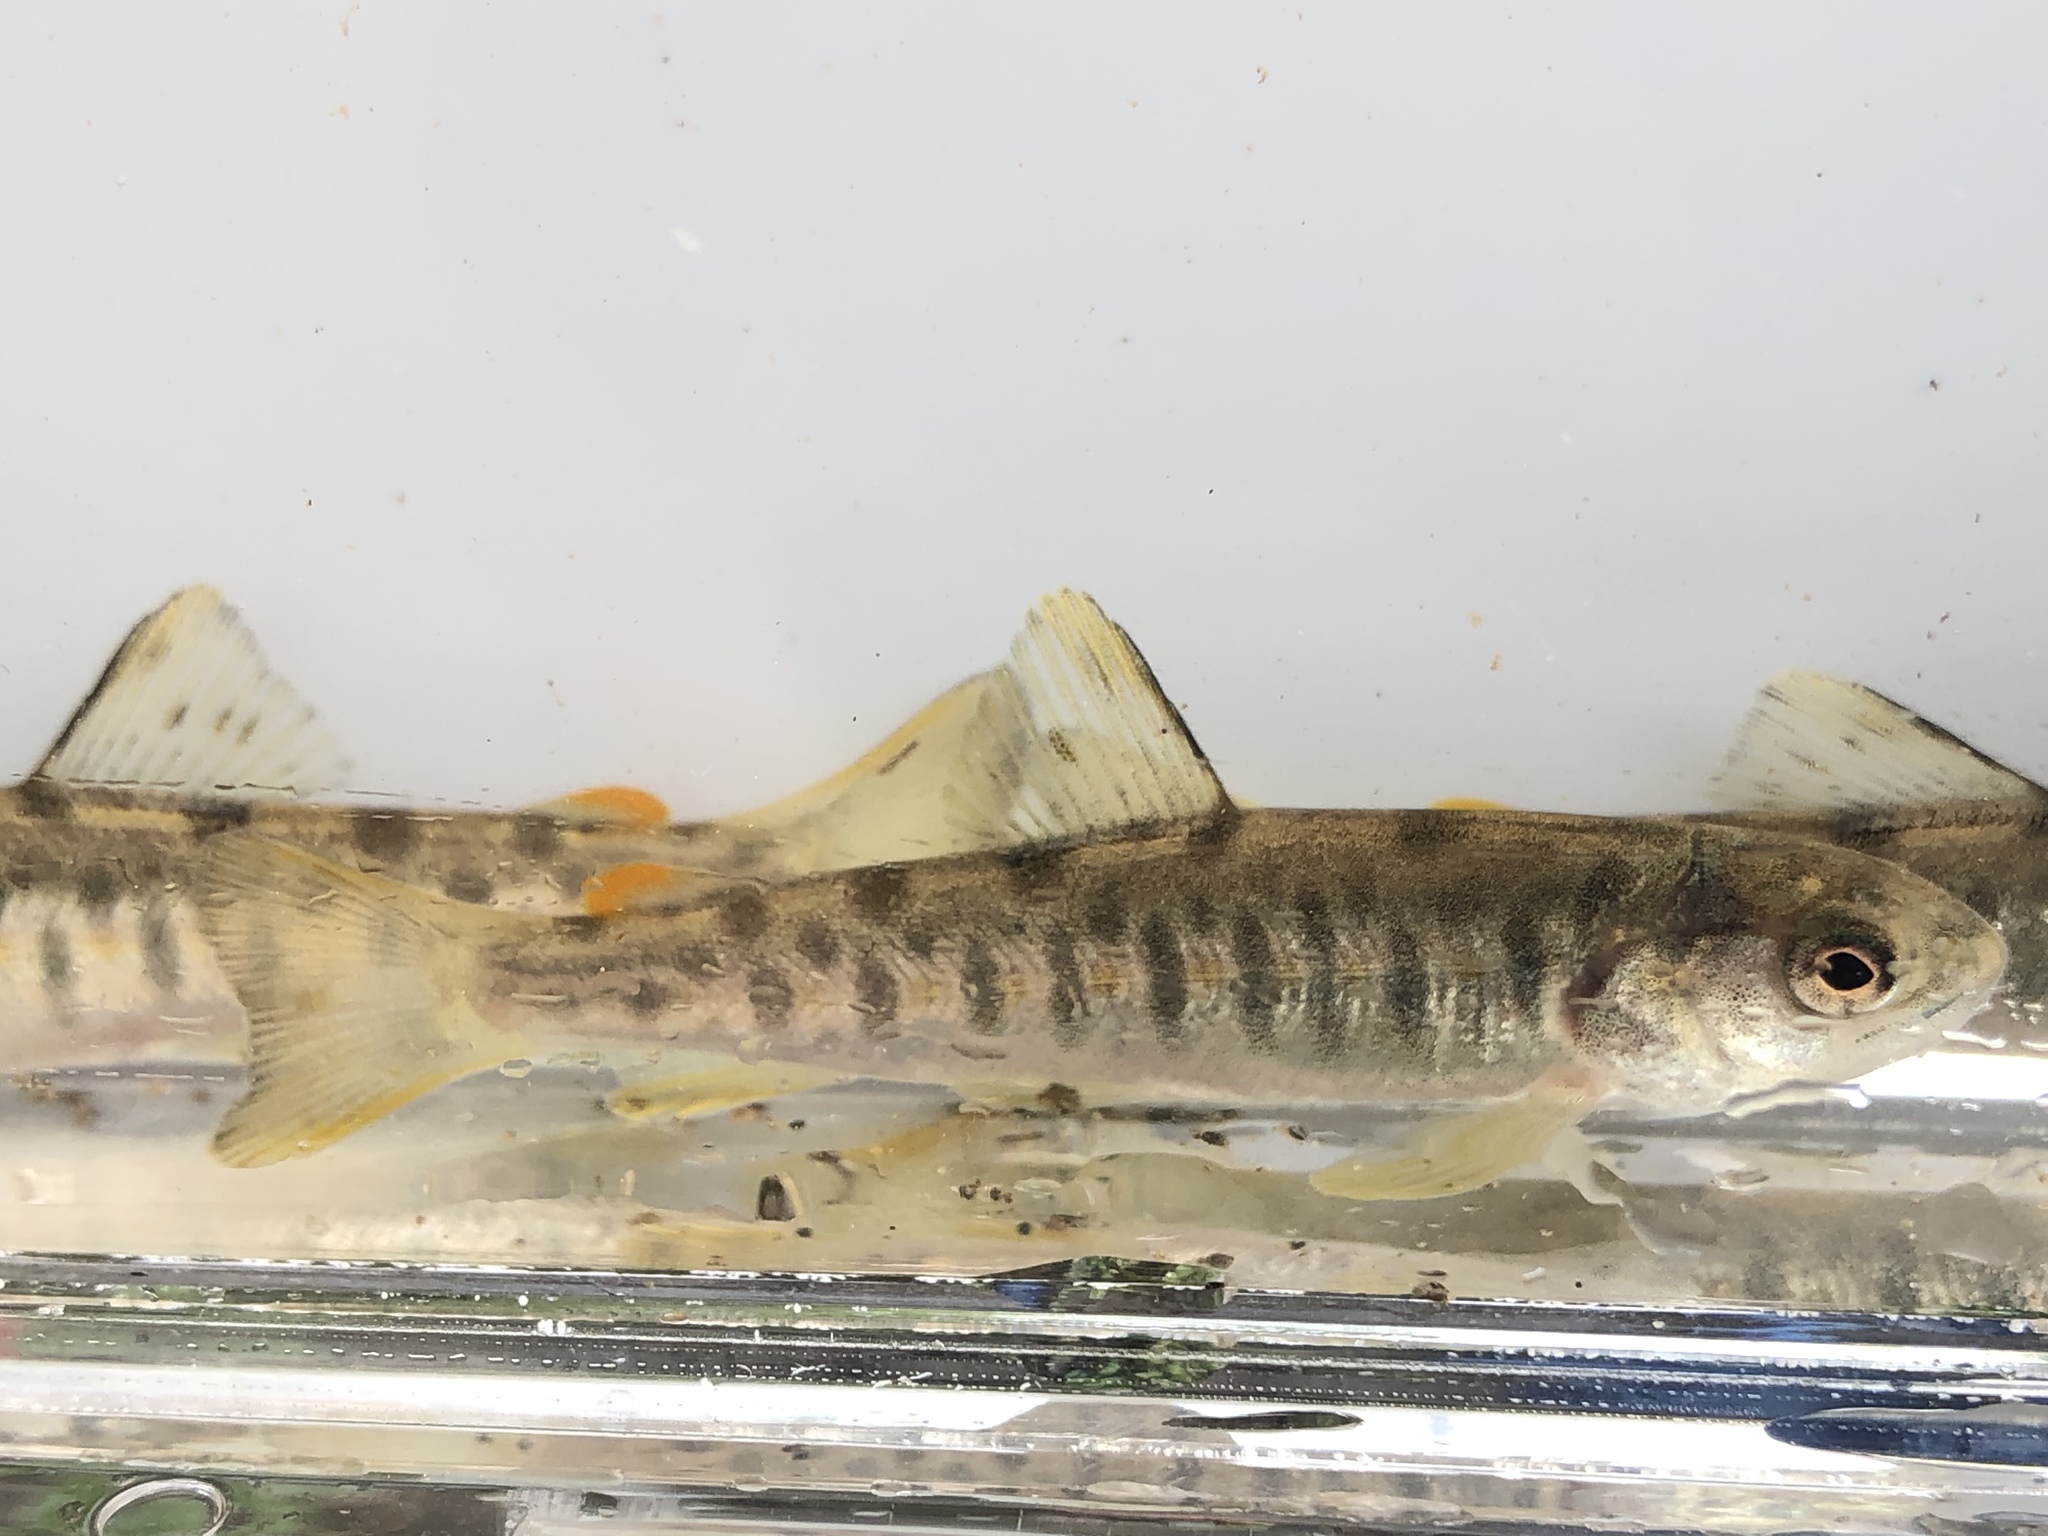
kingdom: Animalia
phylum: Chordata
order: Salmoniformes
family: Salmonidae
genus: Salmo
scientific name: Salmo trutta
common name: Brown trout
